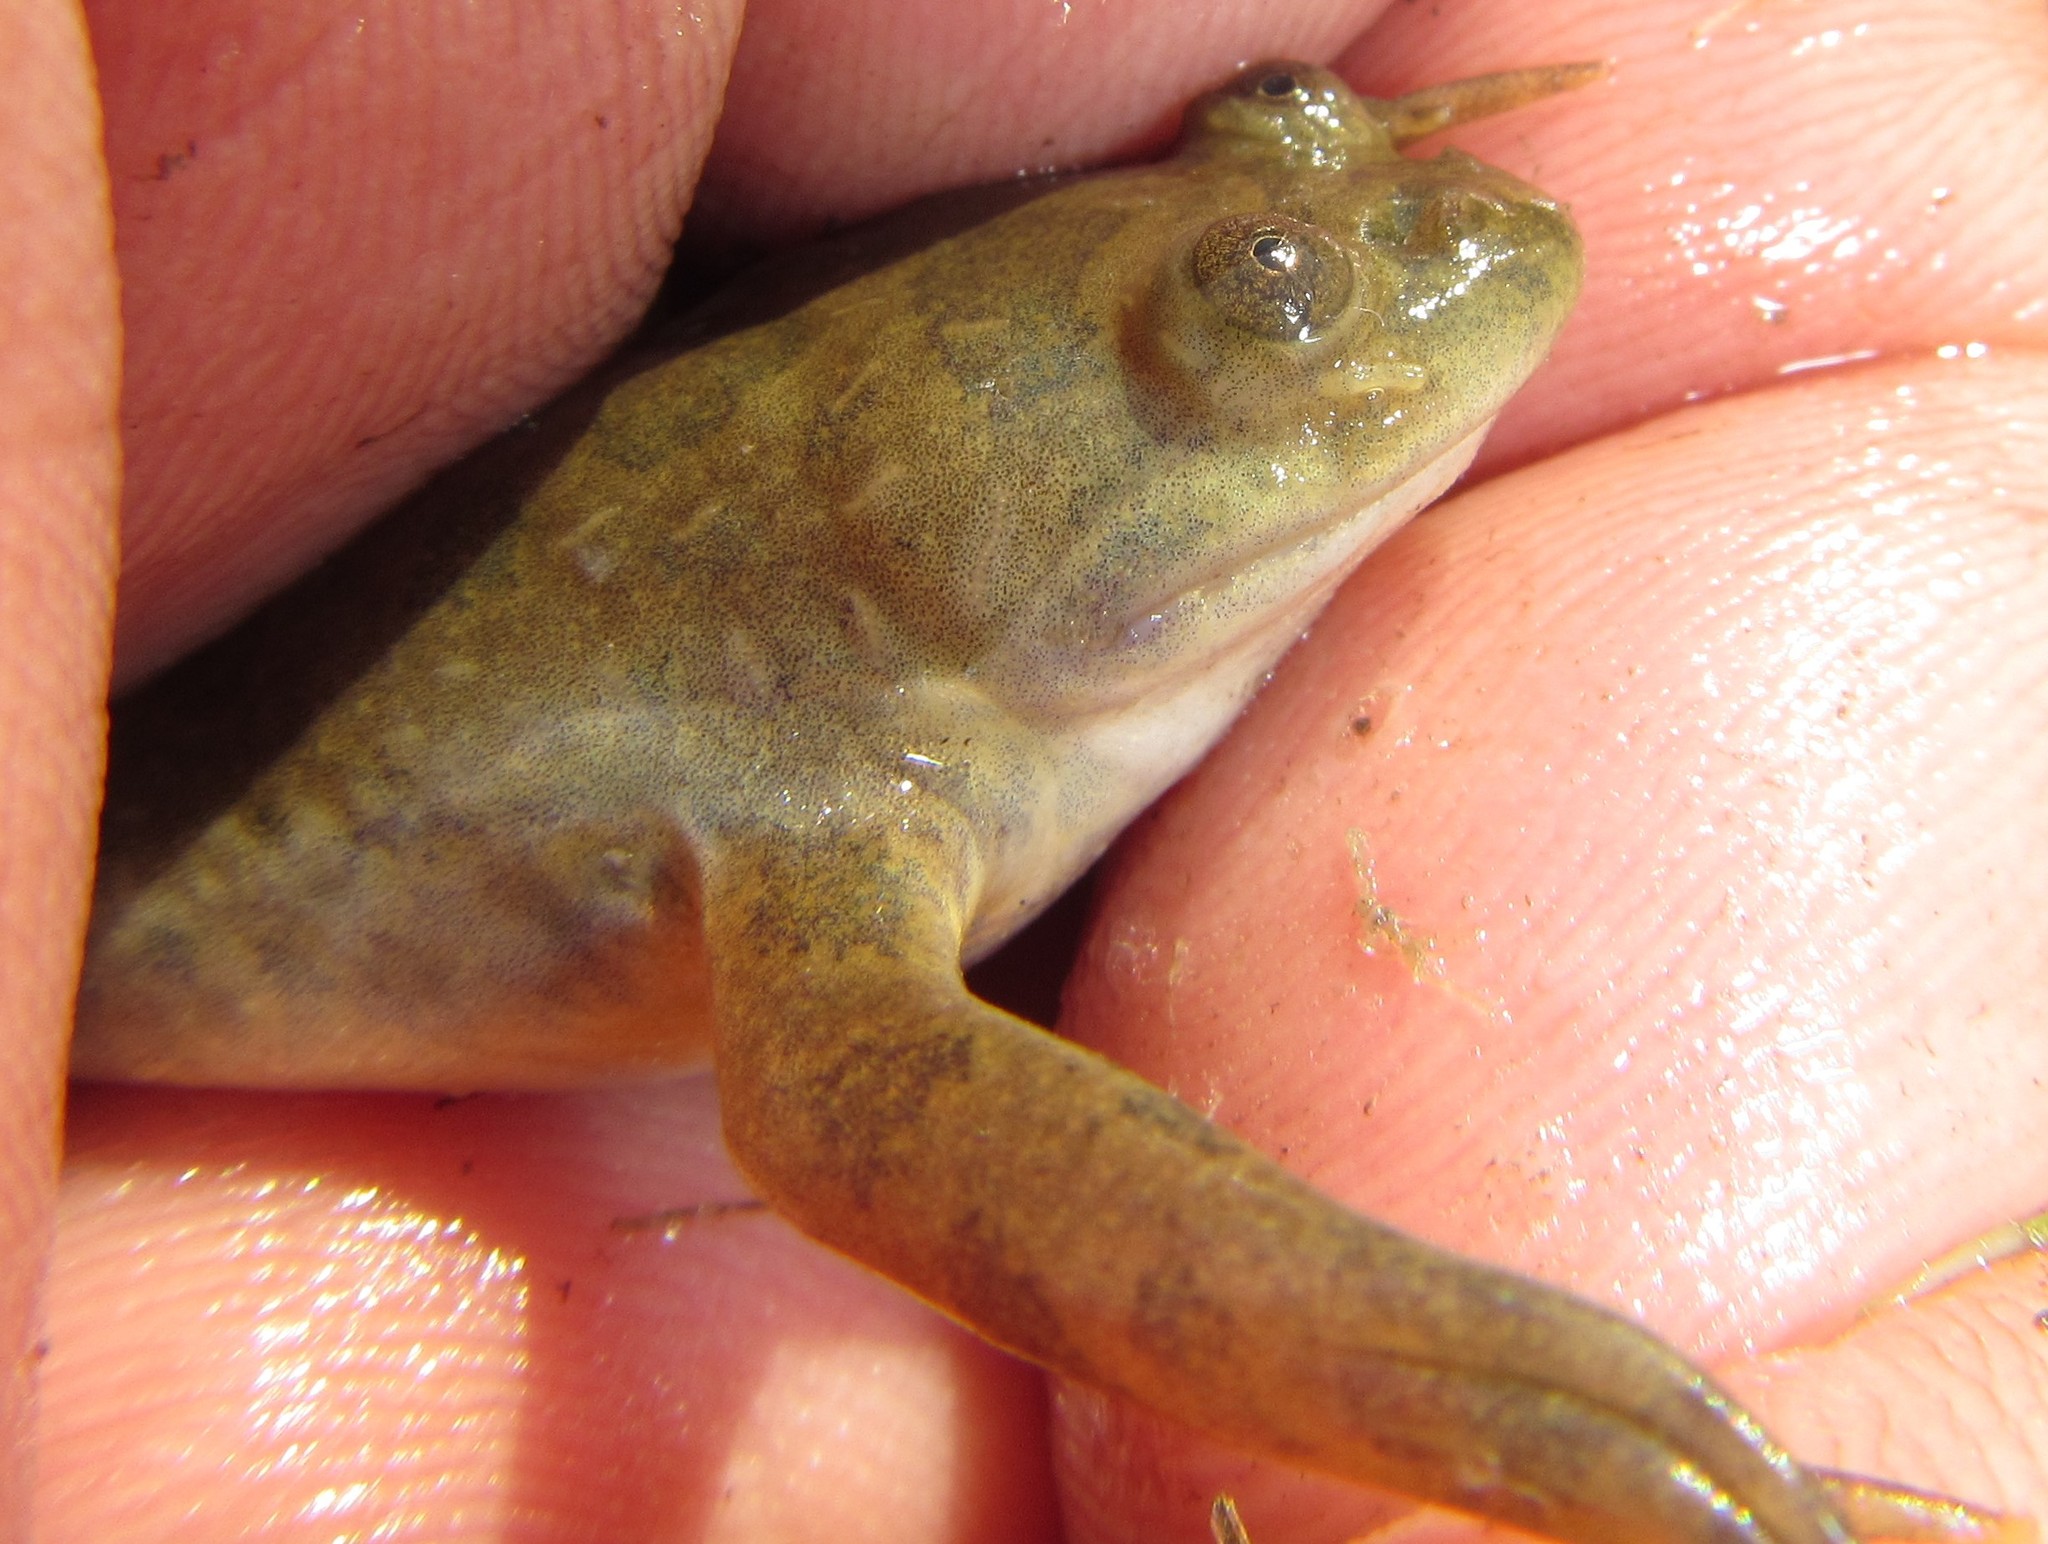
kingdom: Animalia
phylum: Chordata
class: Amphibia
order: Anura
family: Pipidae
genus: Xenopus
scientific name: Xenopus muelleri
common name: Muller's clawed frog
